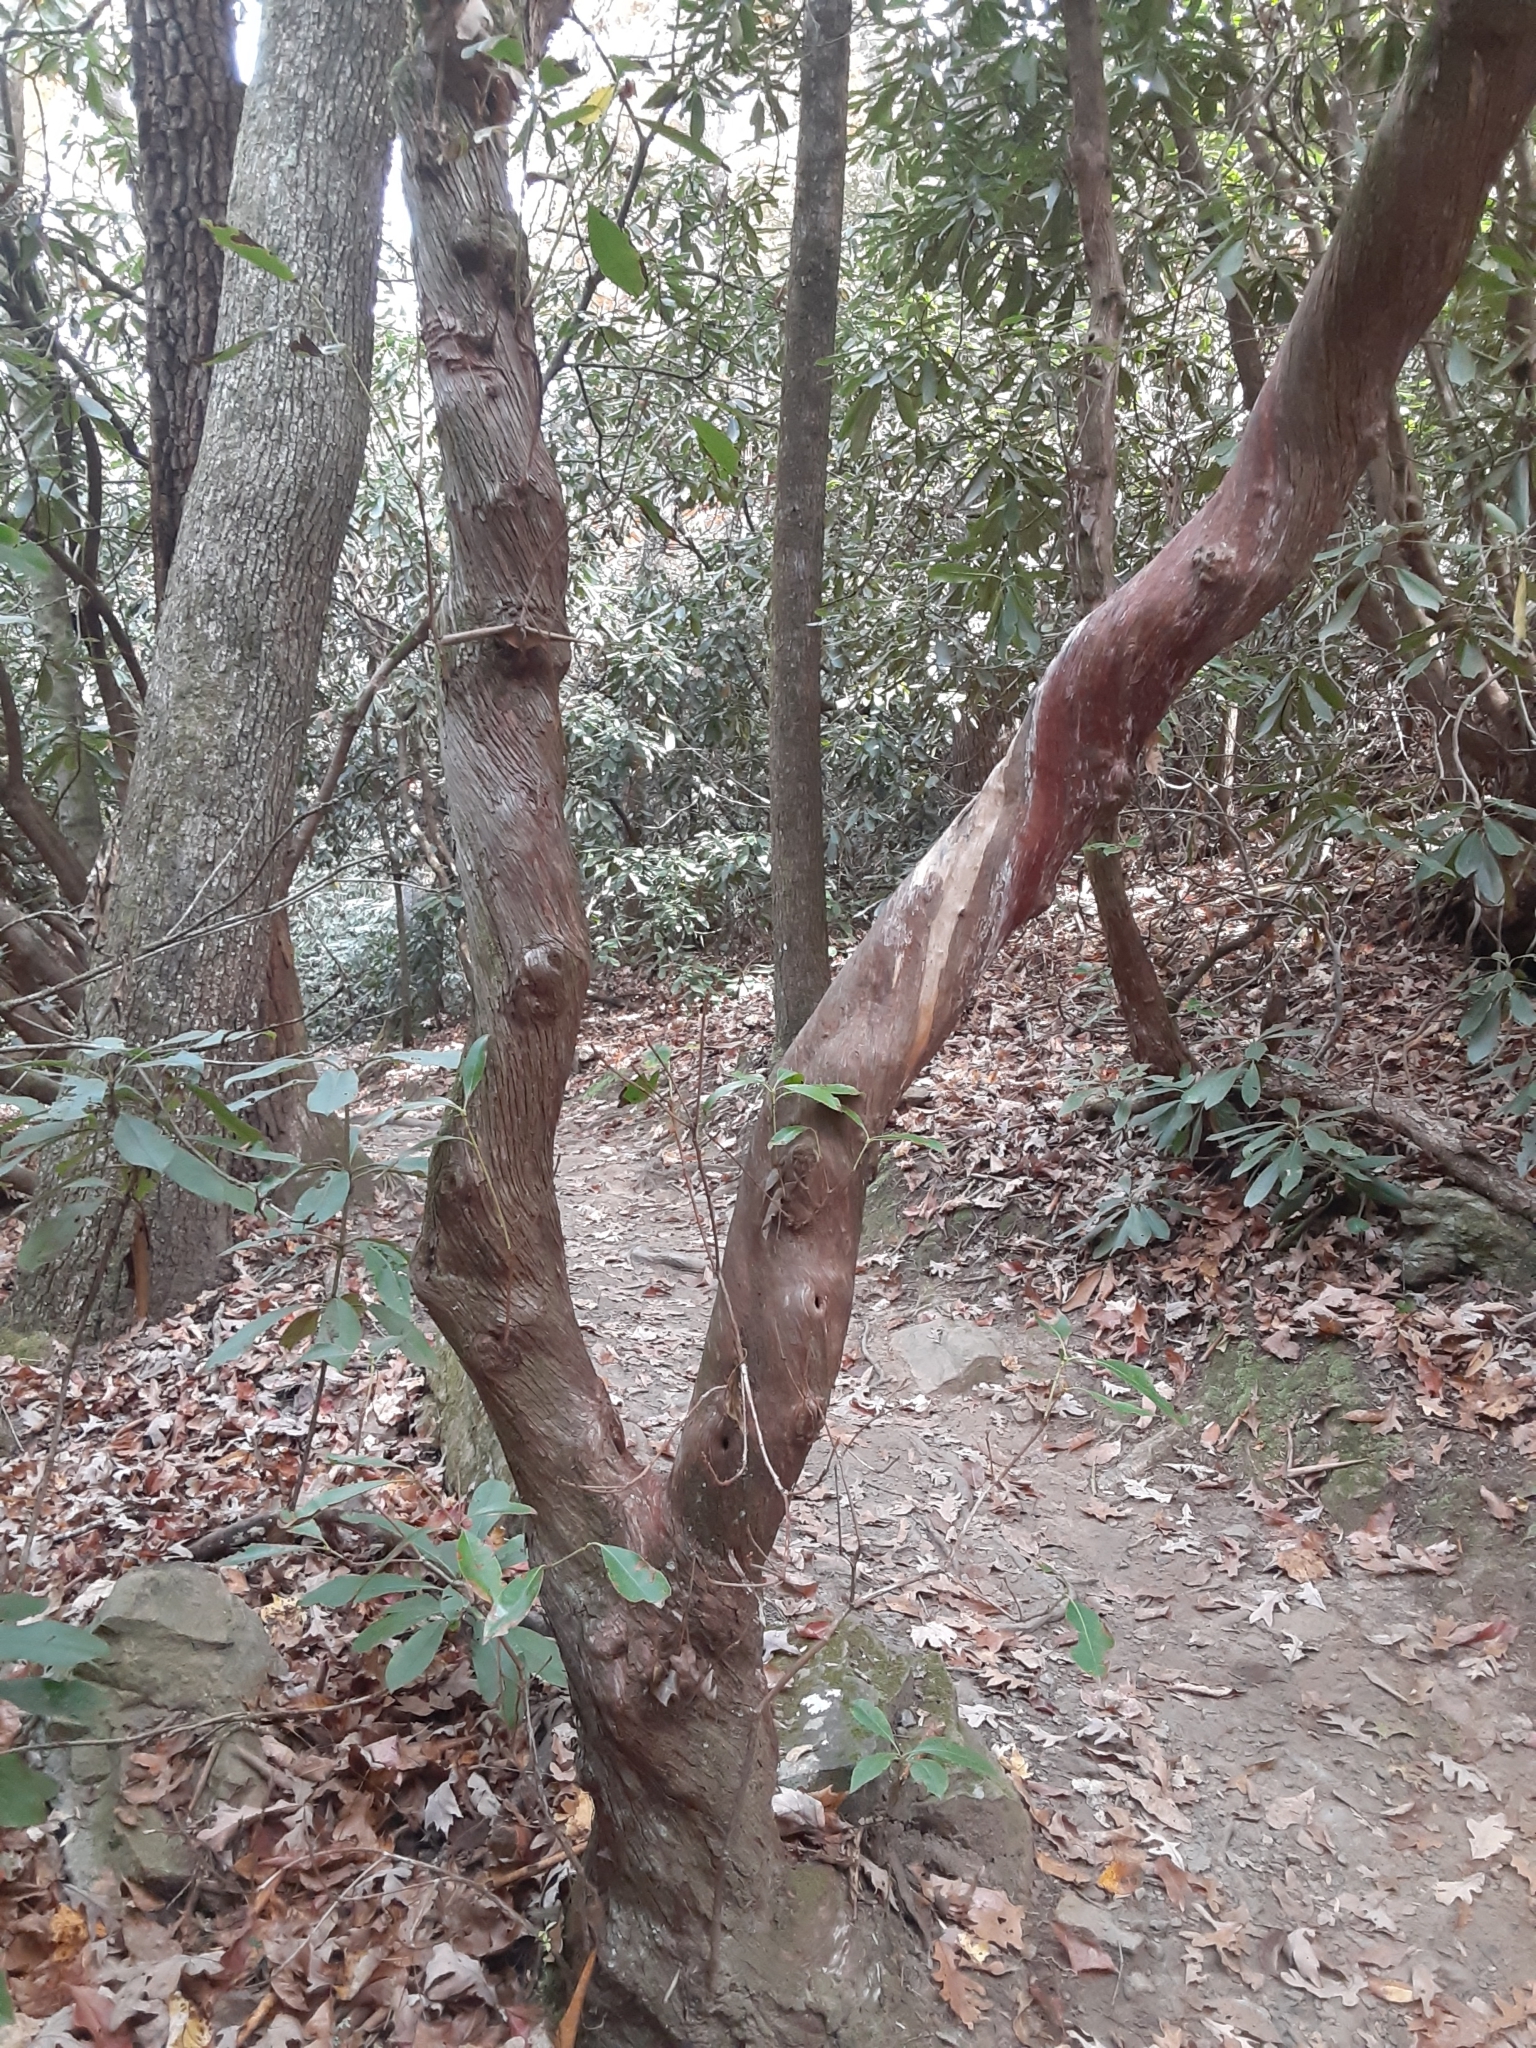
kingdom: Plantae
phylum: Tracheophyta
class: Magnoliopsida
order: Ericales
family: Ericaceae
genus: Kalmia
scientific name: Kalmia latifolia
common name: Mountain-laurel
